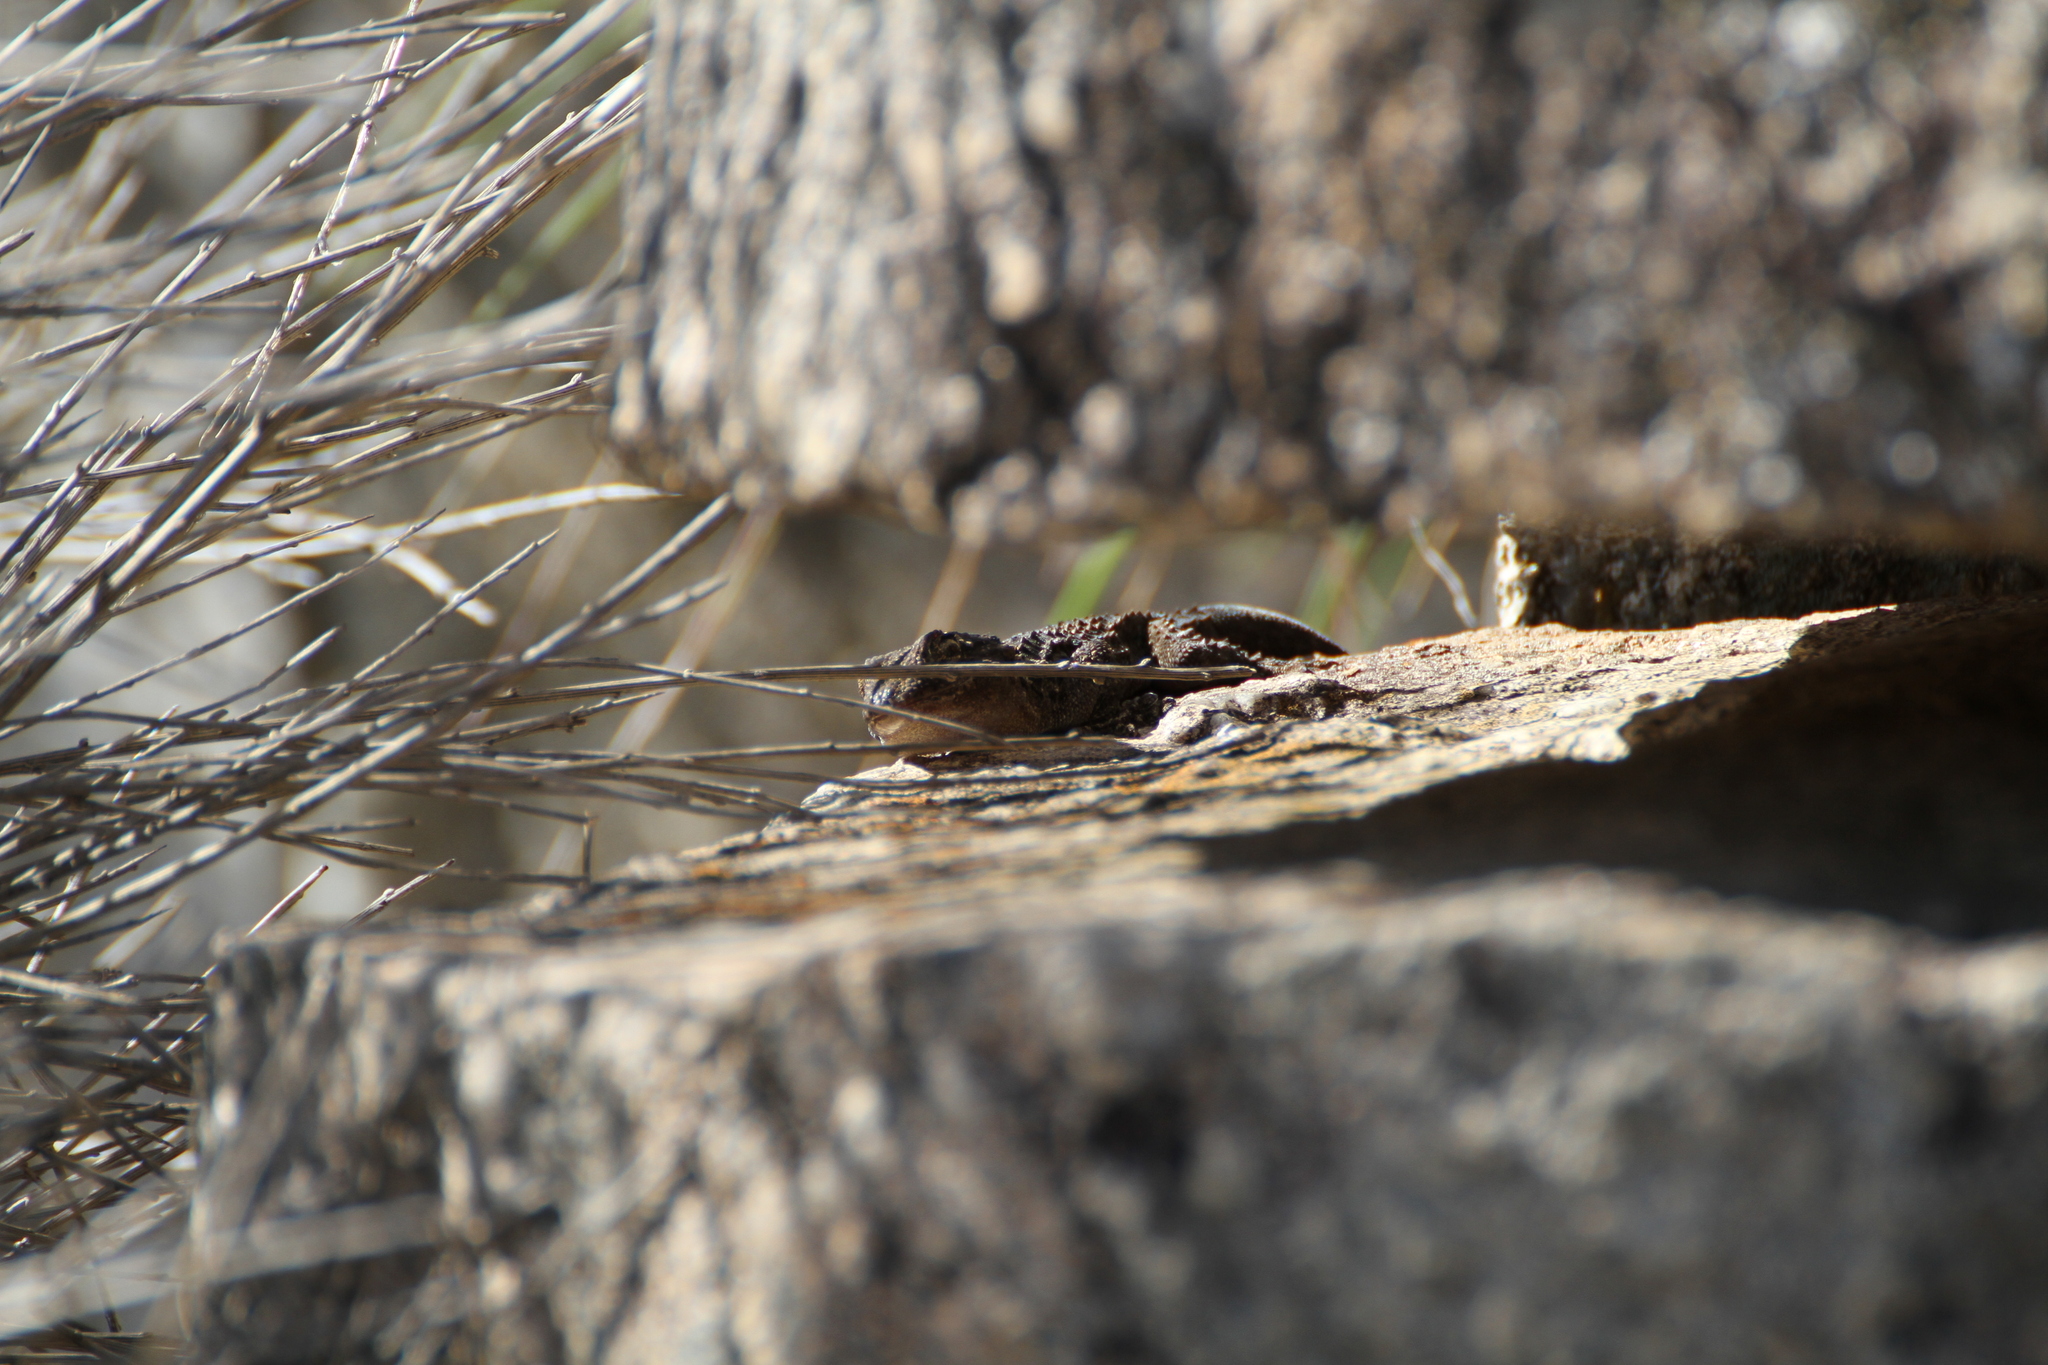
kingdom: Animalia
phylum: Chordata
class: Squamata
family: Phyllodactylidae
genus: Tarentola
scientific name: Tarentola mauritanica
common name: Moorish gecko
